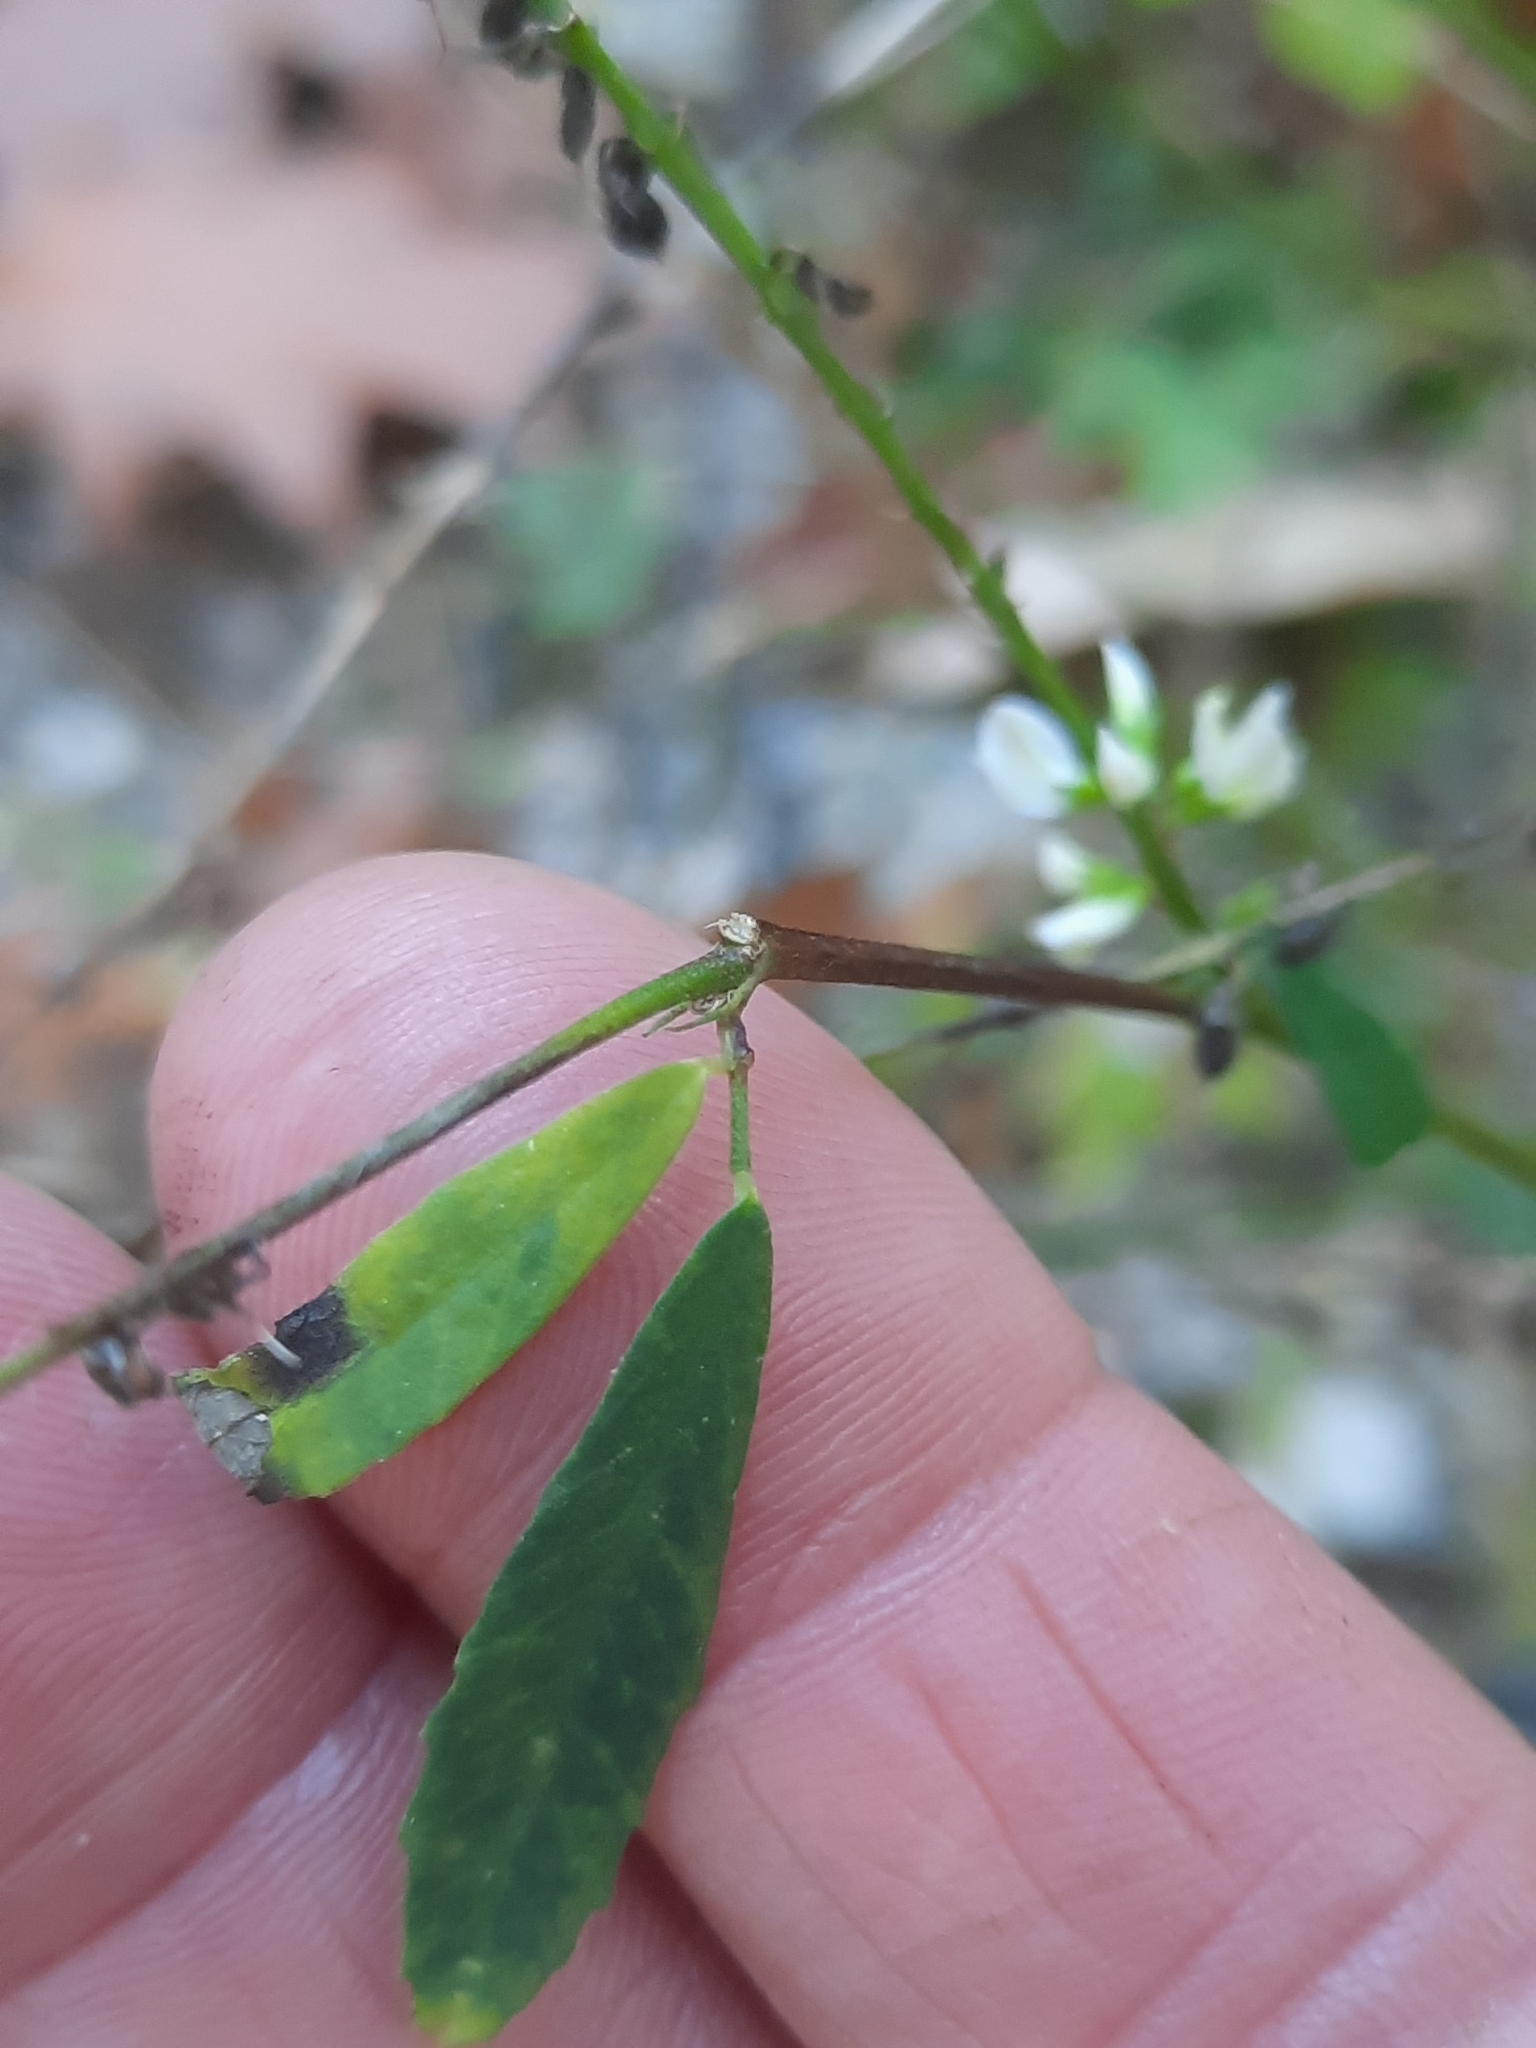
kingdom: Plantae
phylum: Tracheophyta
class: Magnoliopsida
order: Fabales
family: Fabaceae
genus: Melilotus
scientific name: Melilotus albus
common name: White melilot
